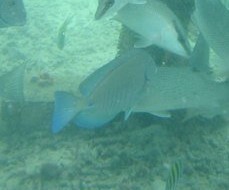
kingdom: Animalia
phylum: Chordata
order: Perciformes
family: Acanthuridae
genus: Acanthurus
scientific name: Acanthurus chirurgus
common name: Doctorfish
